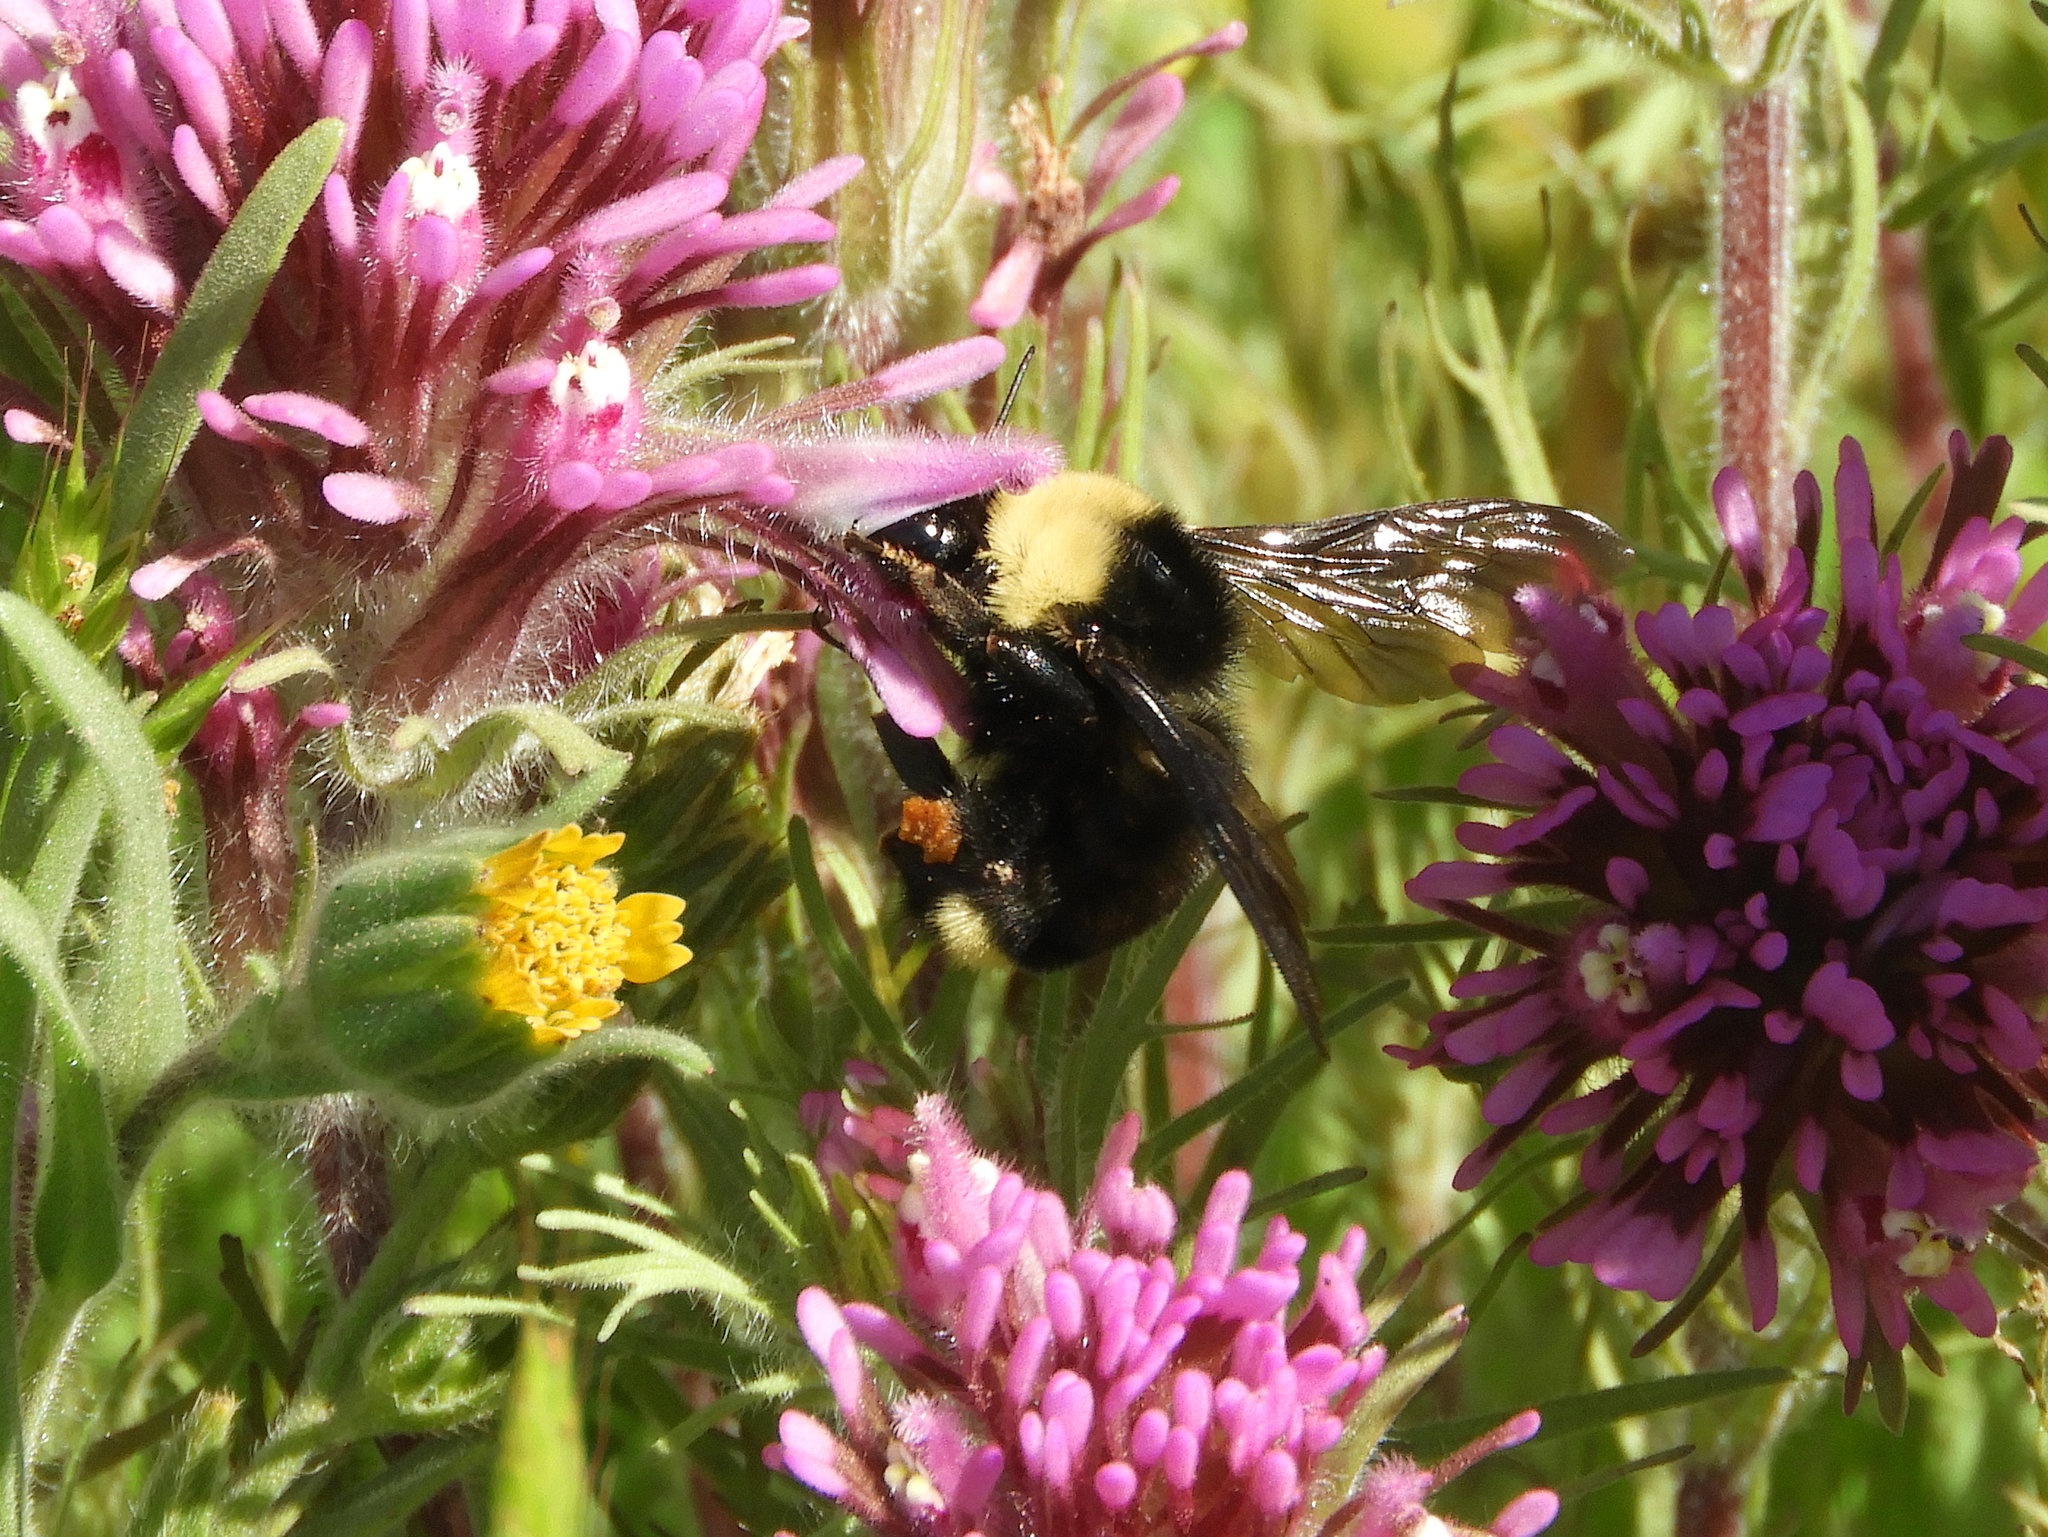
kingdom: Animalia
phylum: Arthropoda
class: Insecta
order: Hymenoptera
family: Apidae
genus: Bombus
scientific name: Bombus californicus
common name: California bumble bee
